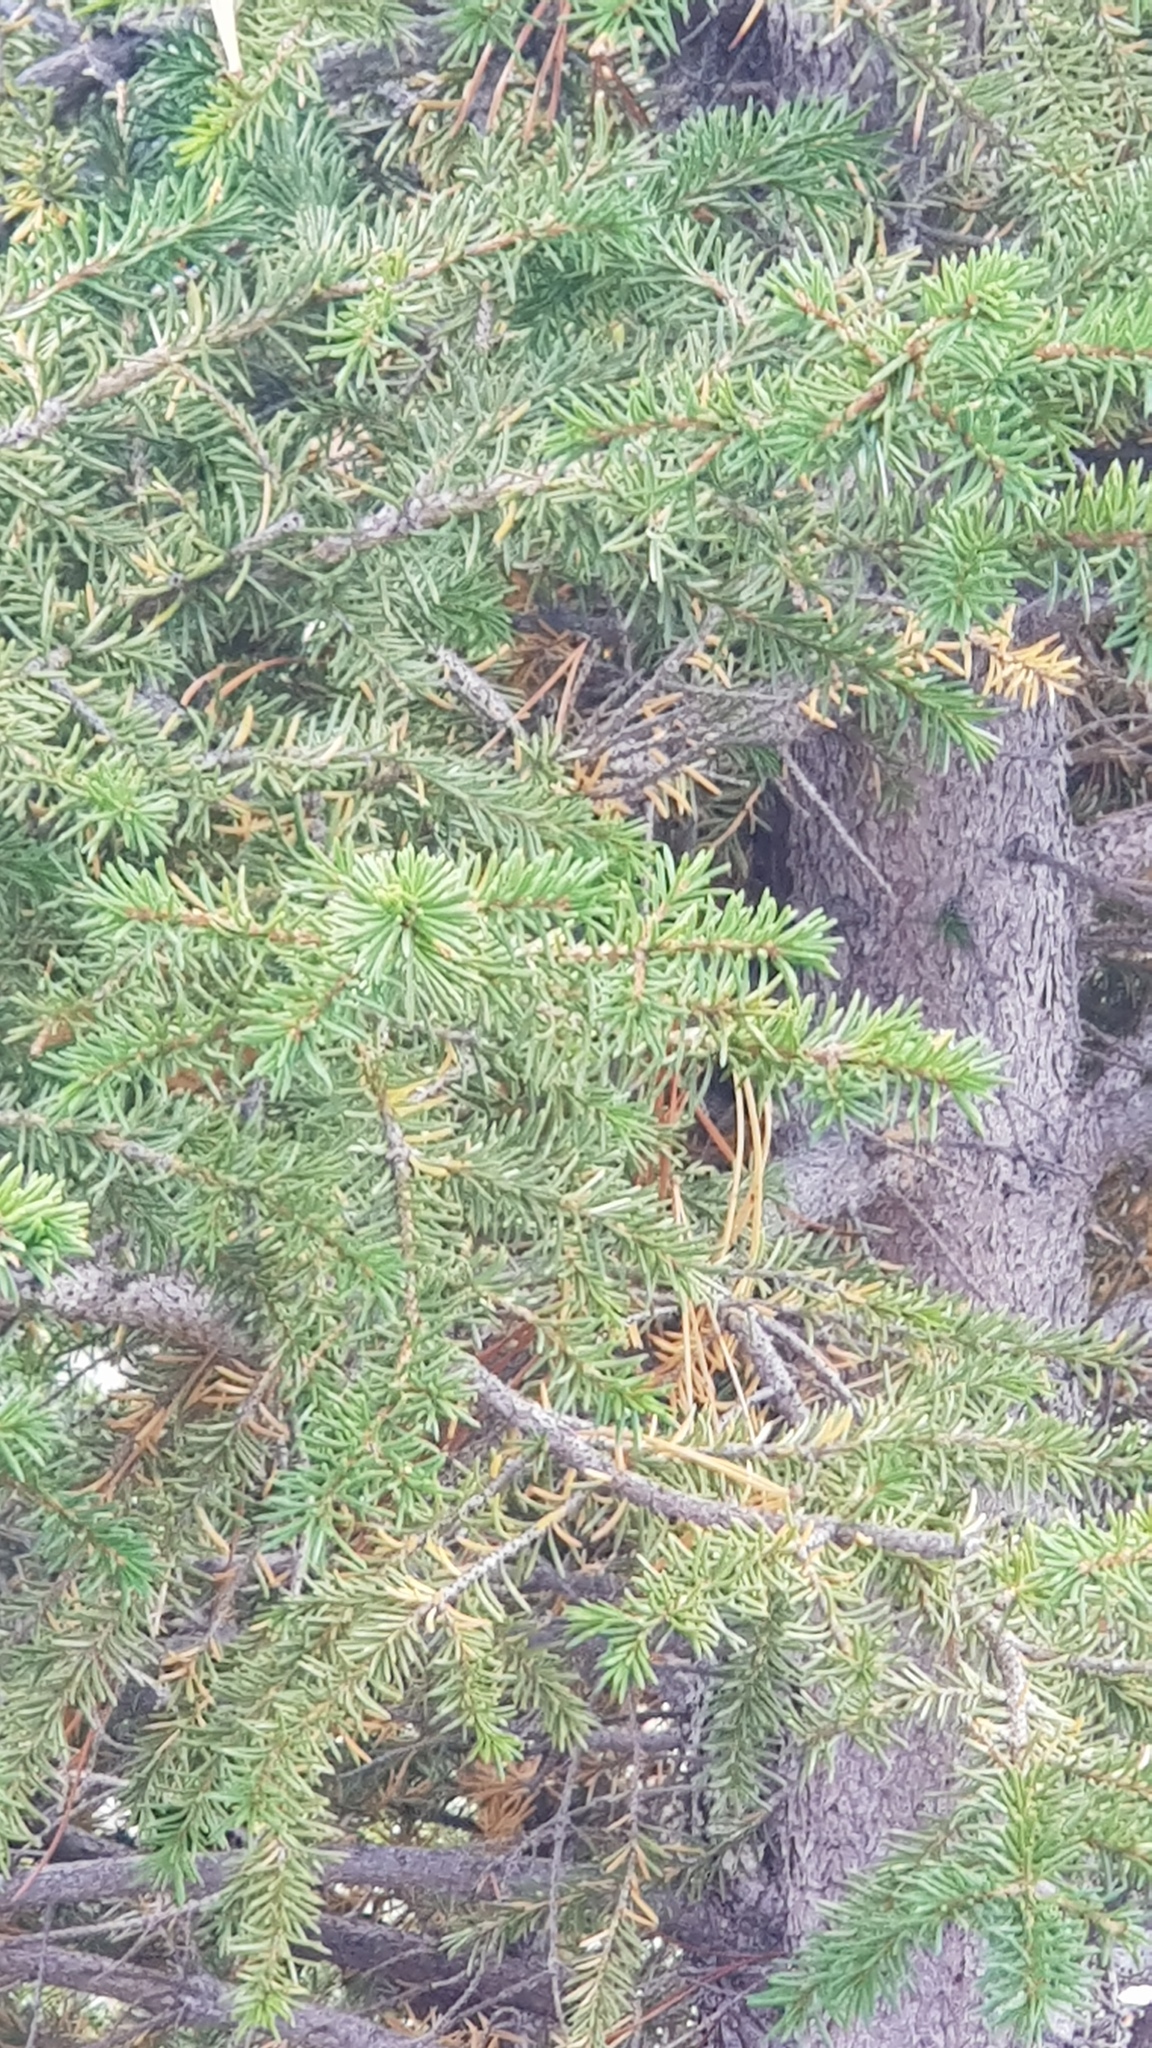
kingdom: Plantae
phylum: Tracheophyta
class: Pinopsida
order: Pinales
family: Pinaceae
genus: Picea
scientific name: Picea obovata
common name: Siberian spruce
